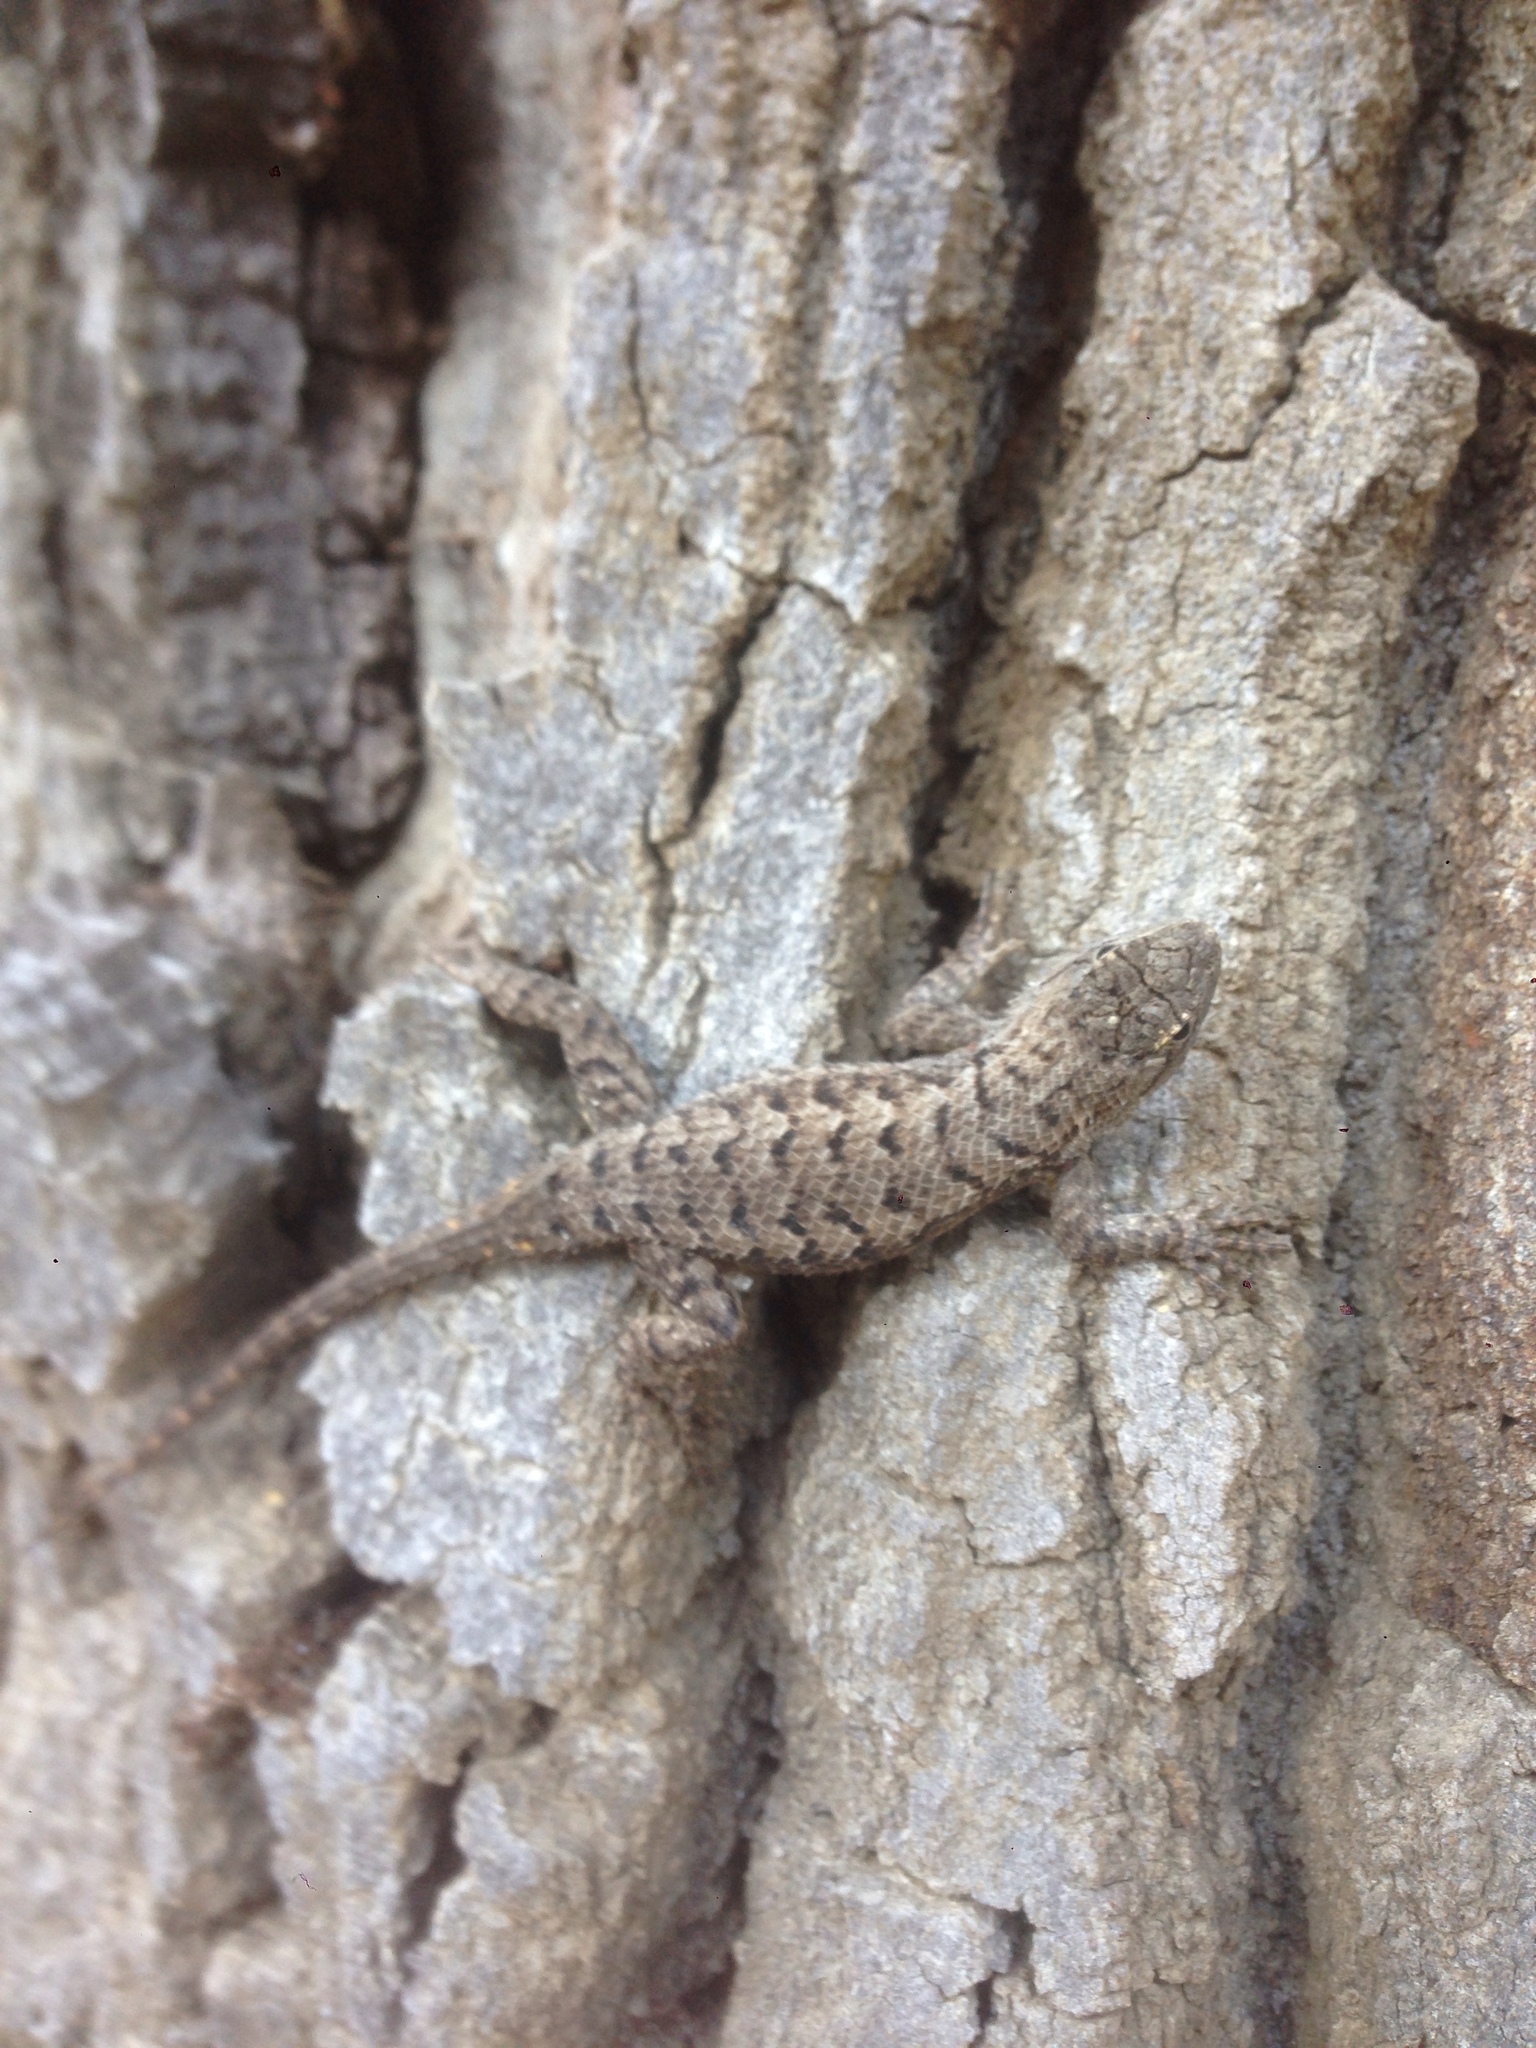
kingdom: Animalia
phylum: Chordata
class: Squamata
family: Phrynosomatidae
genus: Sceloporus
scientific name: Sceloporus occidentalis
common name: Western fence lizard
